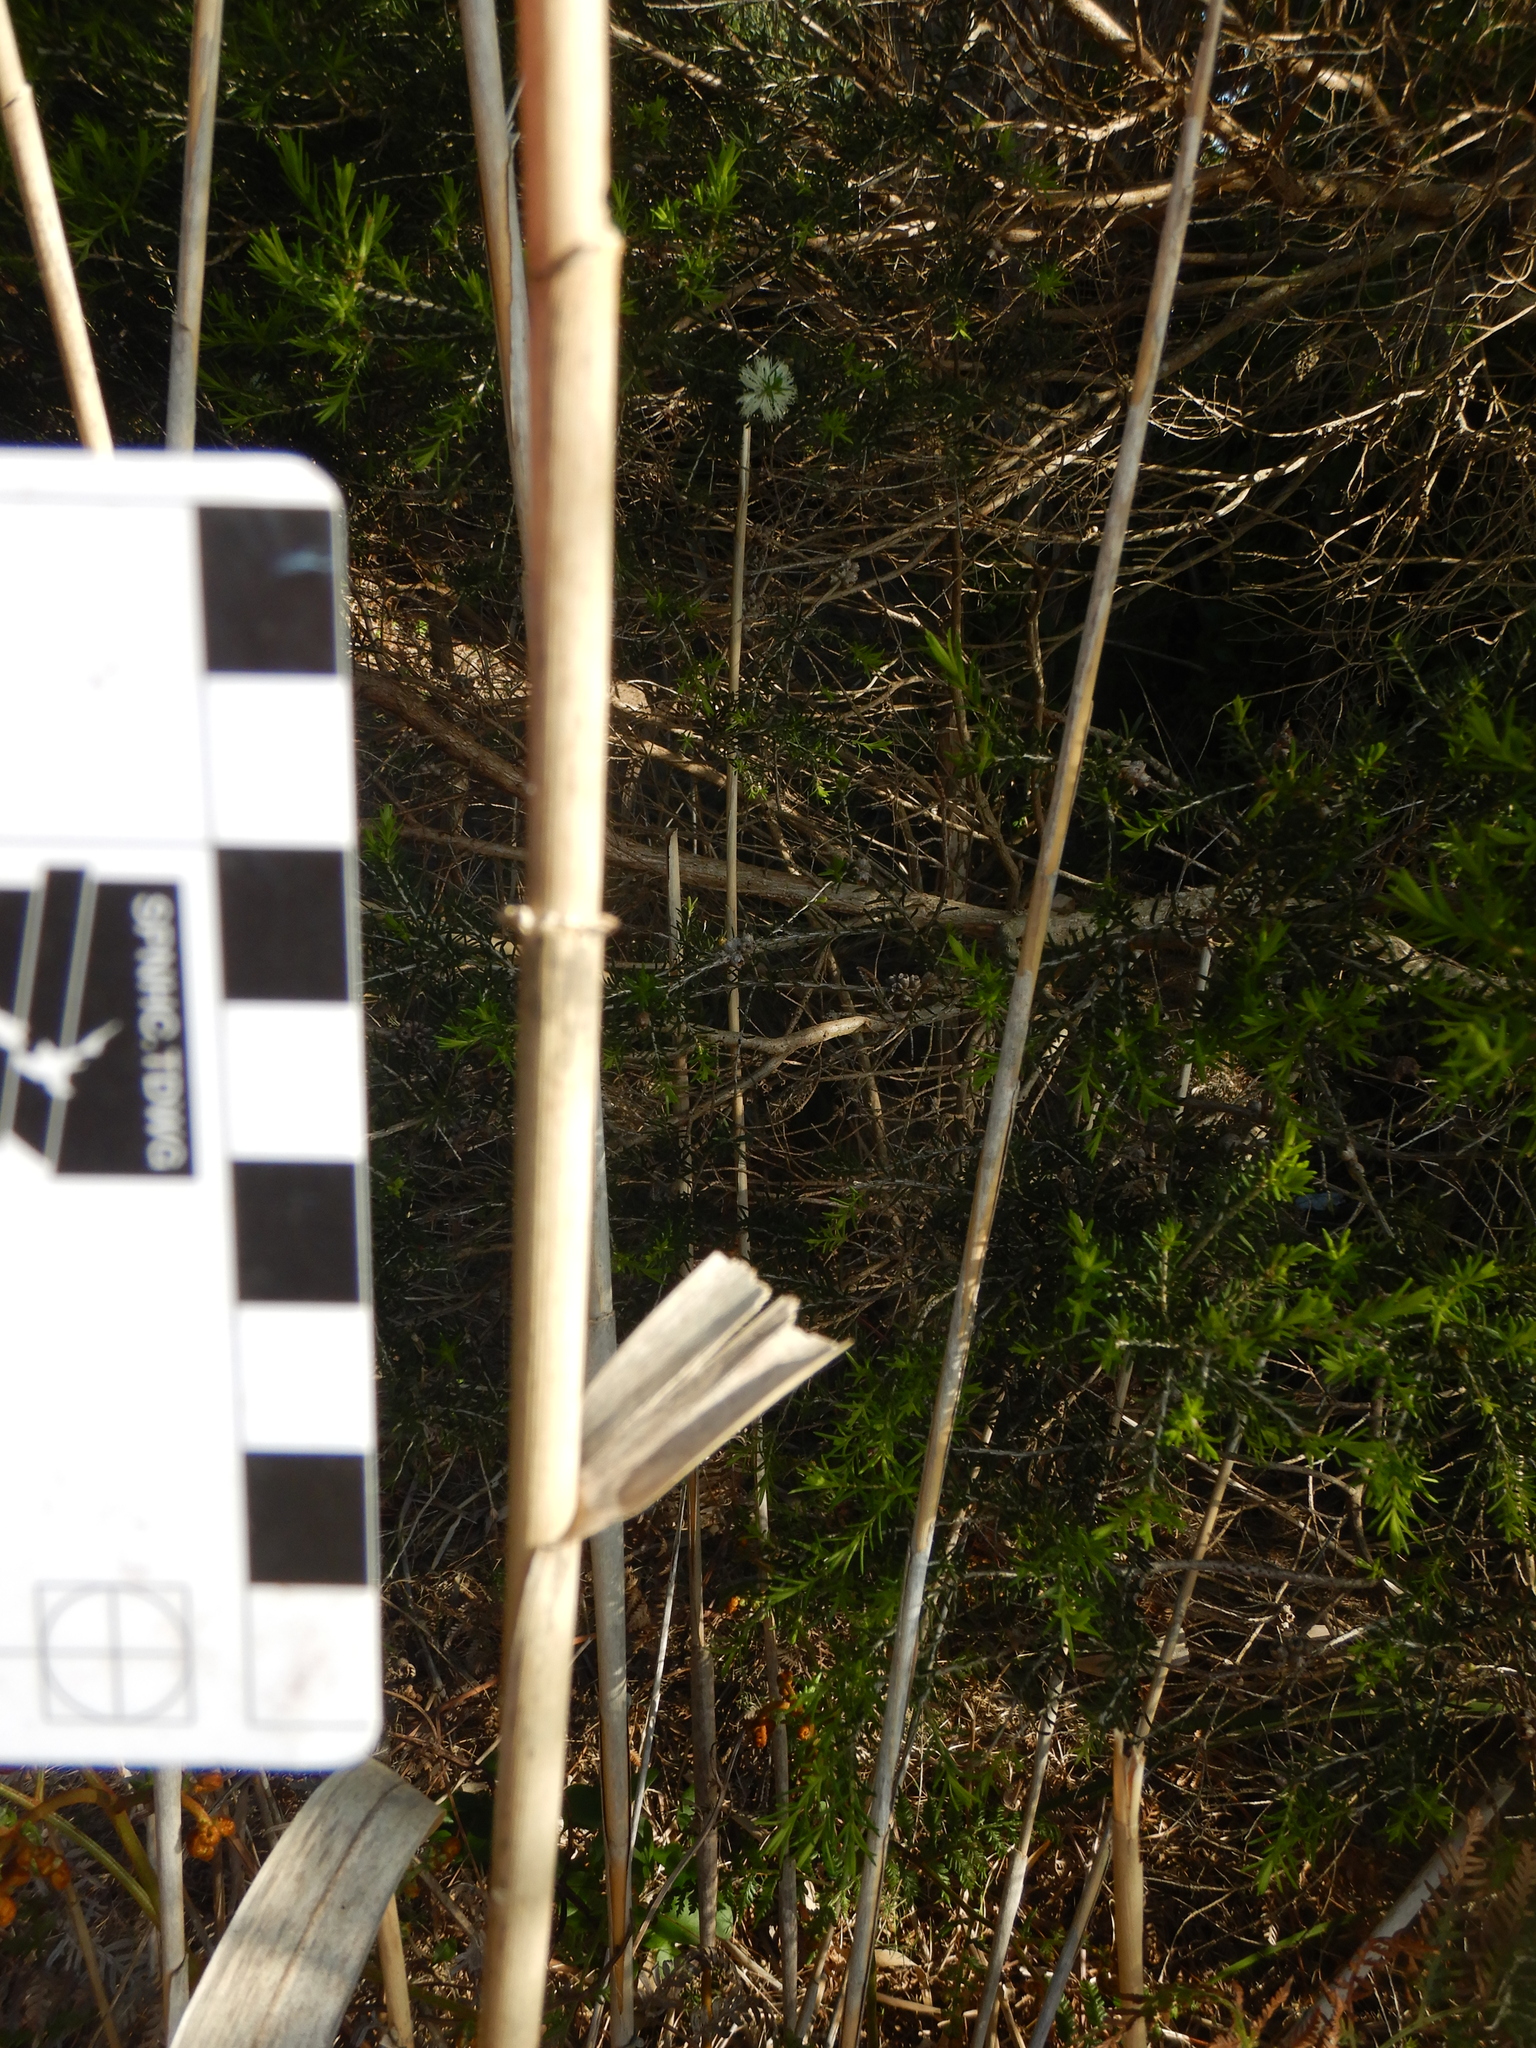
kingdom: Plantae
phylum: Tracheophyta
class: Liliopsida
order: Poales
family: Poaceae
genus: Phragmites
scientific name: Phragmites australis
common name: Common reed
